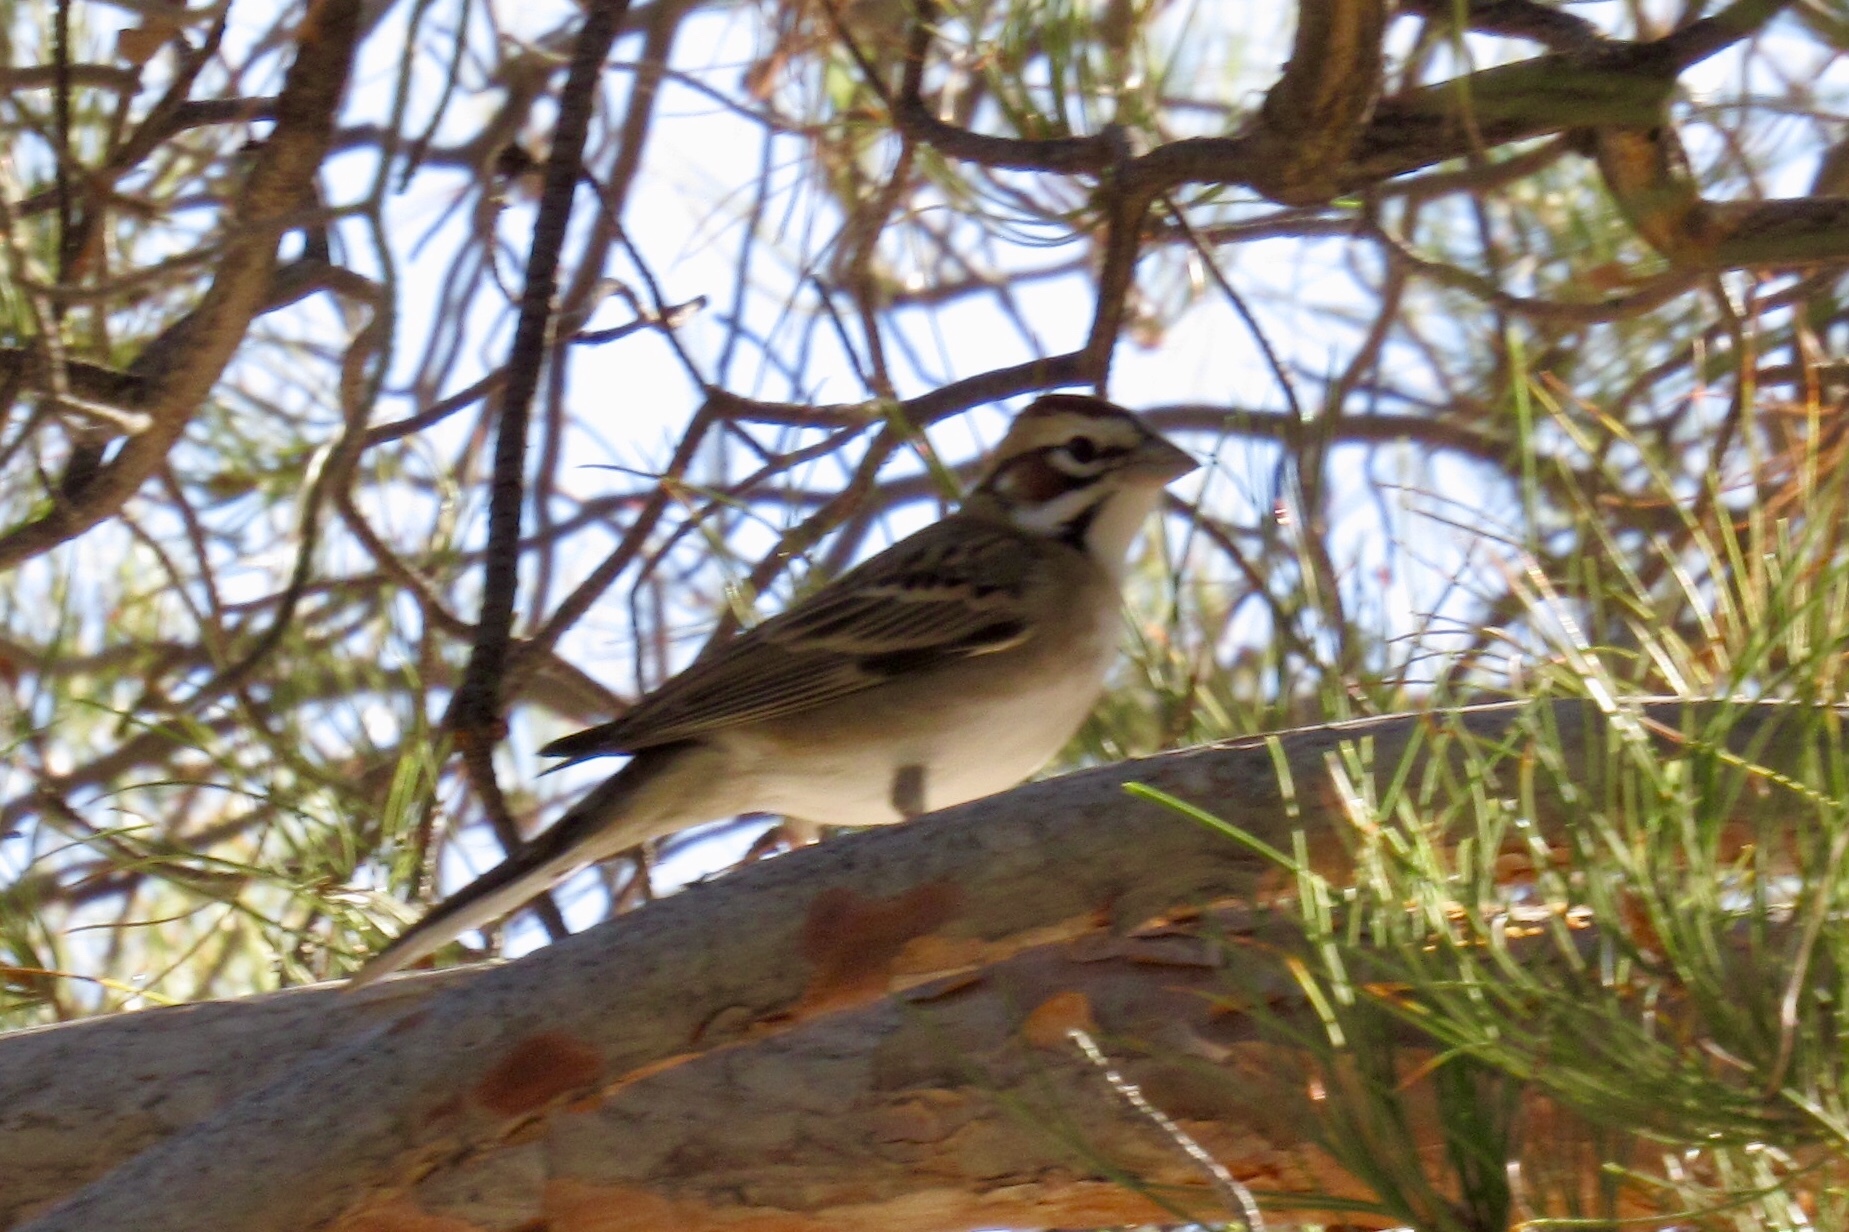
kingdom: Animalia
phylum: Chordata
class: Aves
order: Passeriformes
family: Passerellidae
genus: Chondestes
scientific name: Chondestes grammacus
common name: Lark sparrow
